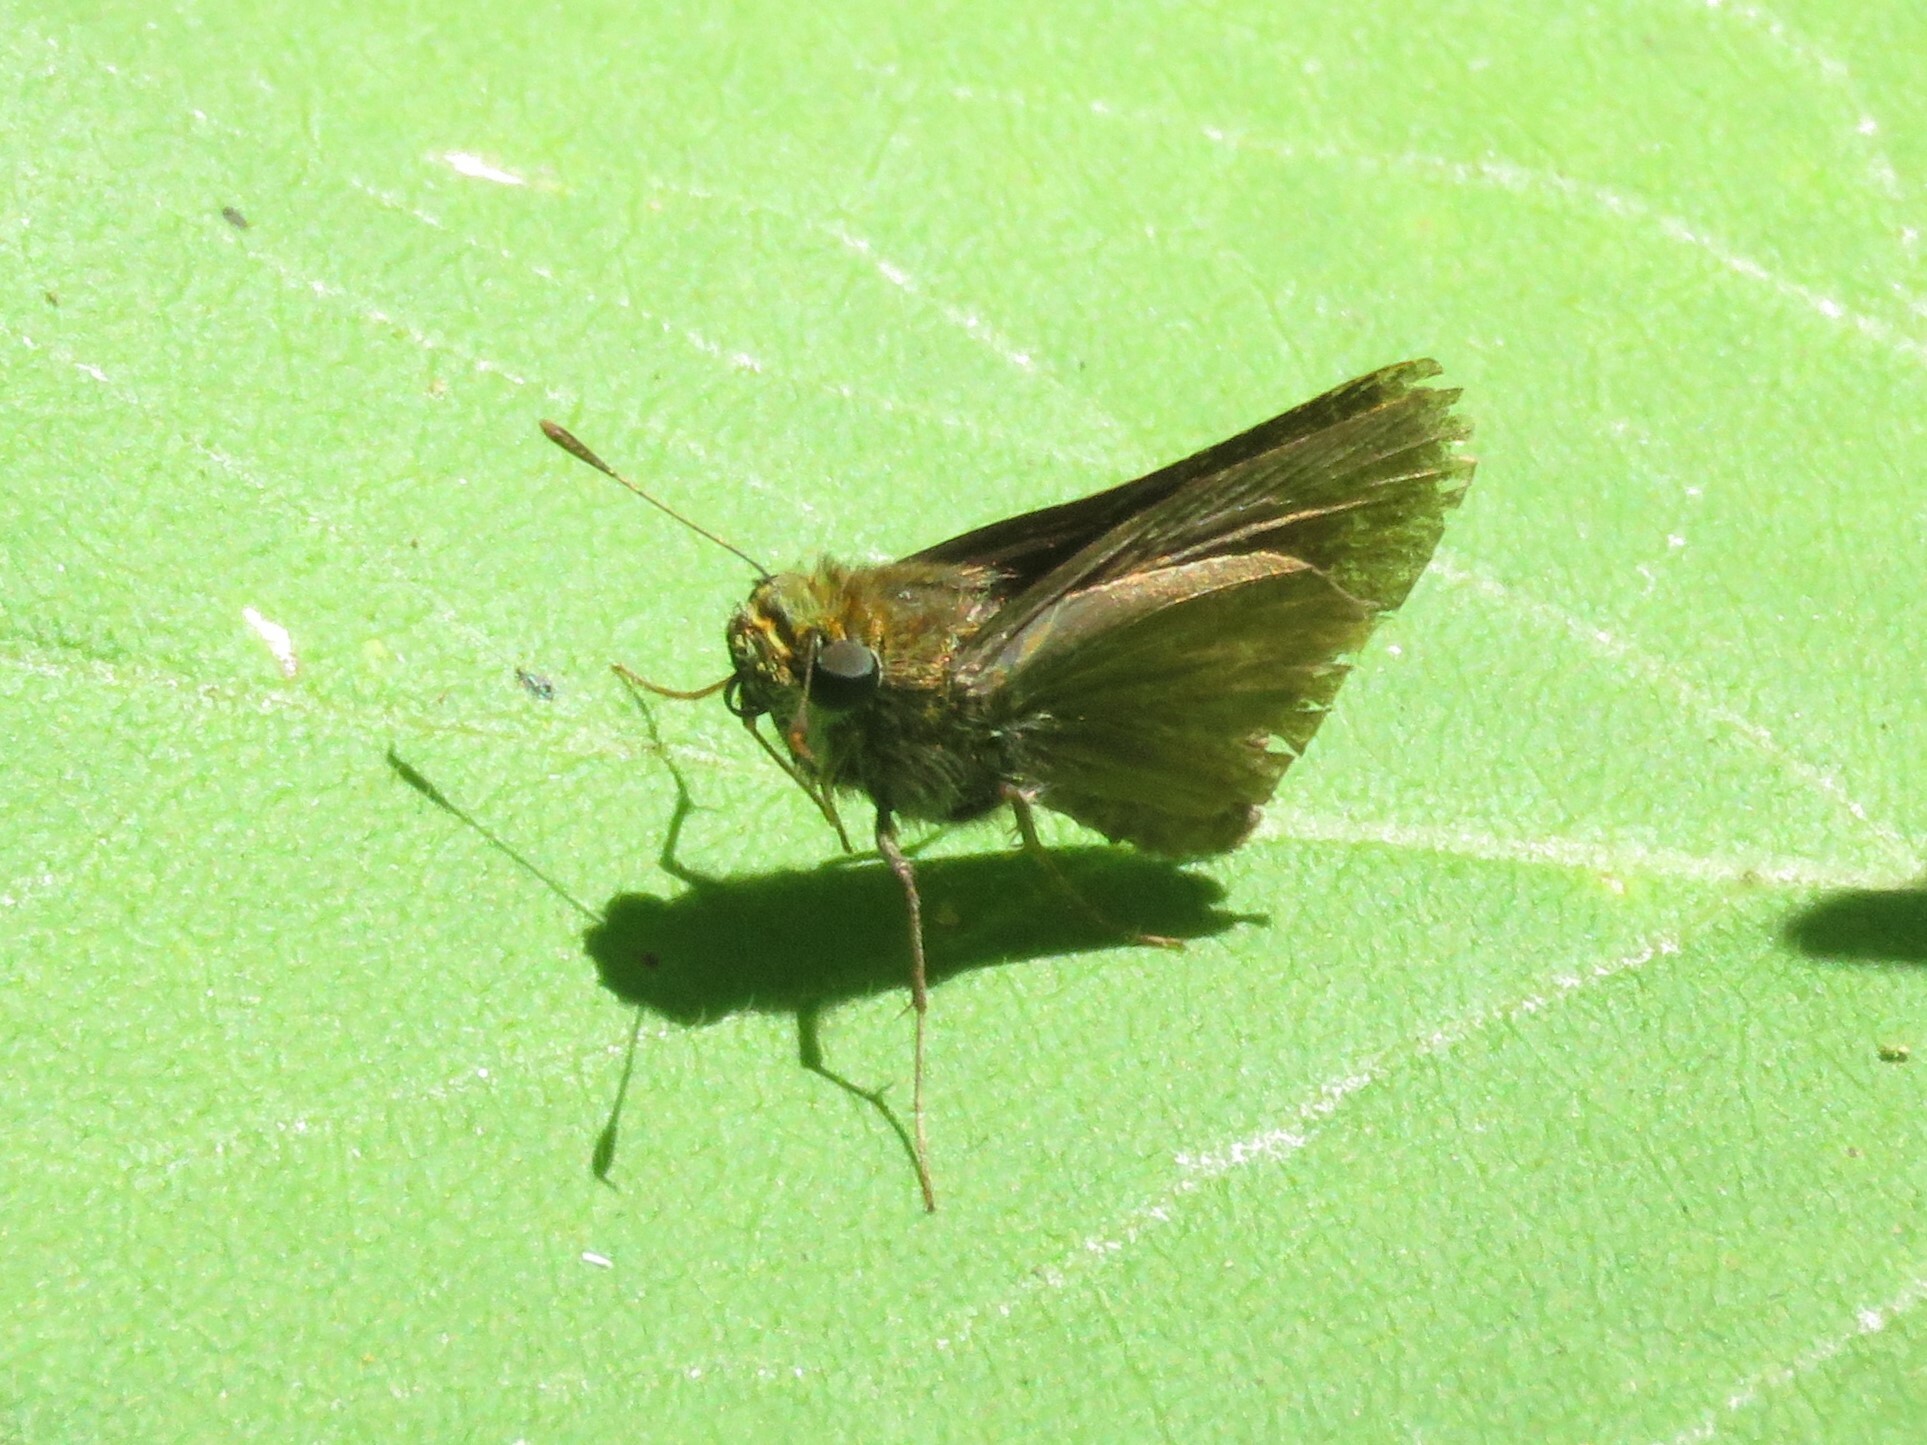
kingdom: Animalia
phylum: Arthropoda
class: Insecta
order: Lepidoptera
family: Hesperiidae
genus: Euphyes
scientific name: Euphyes vestris
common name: Dun skipper
